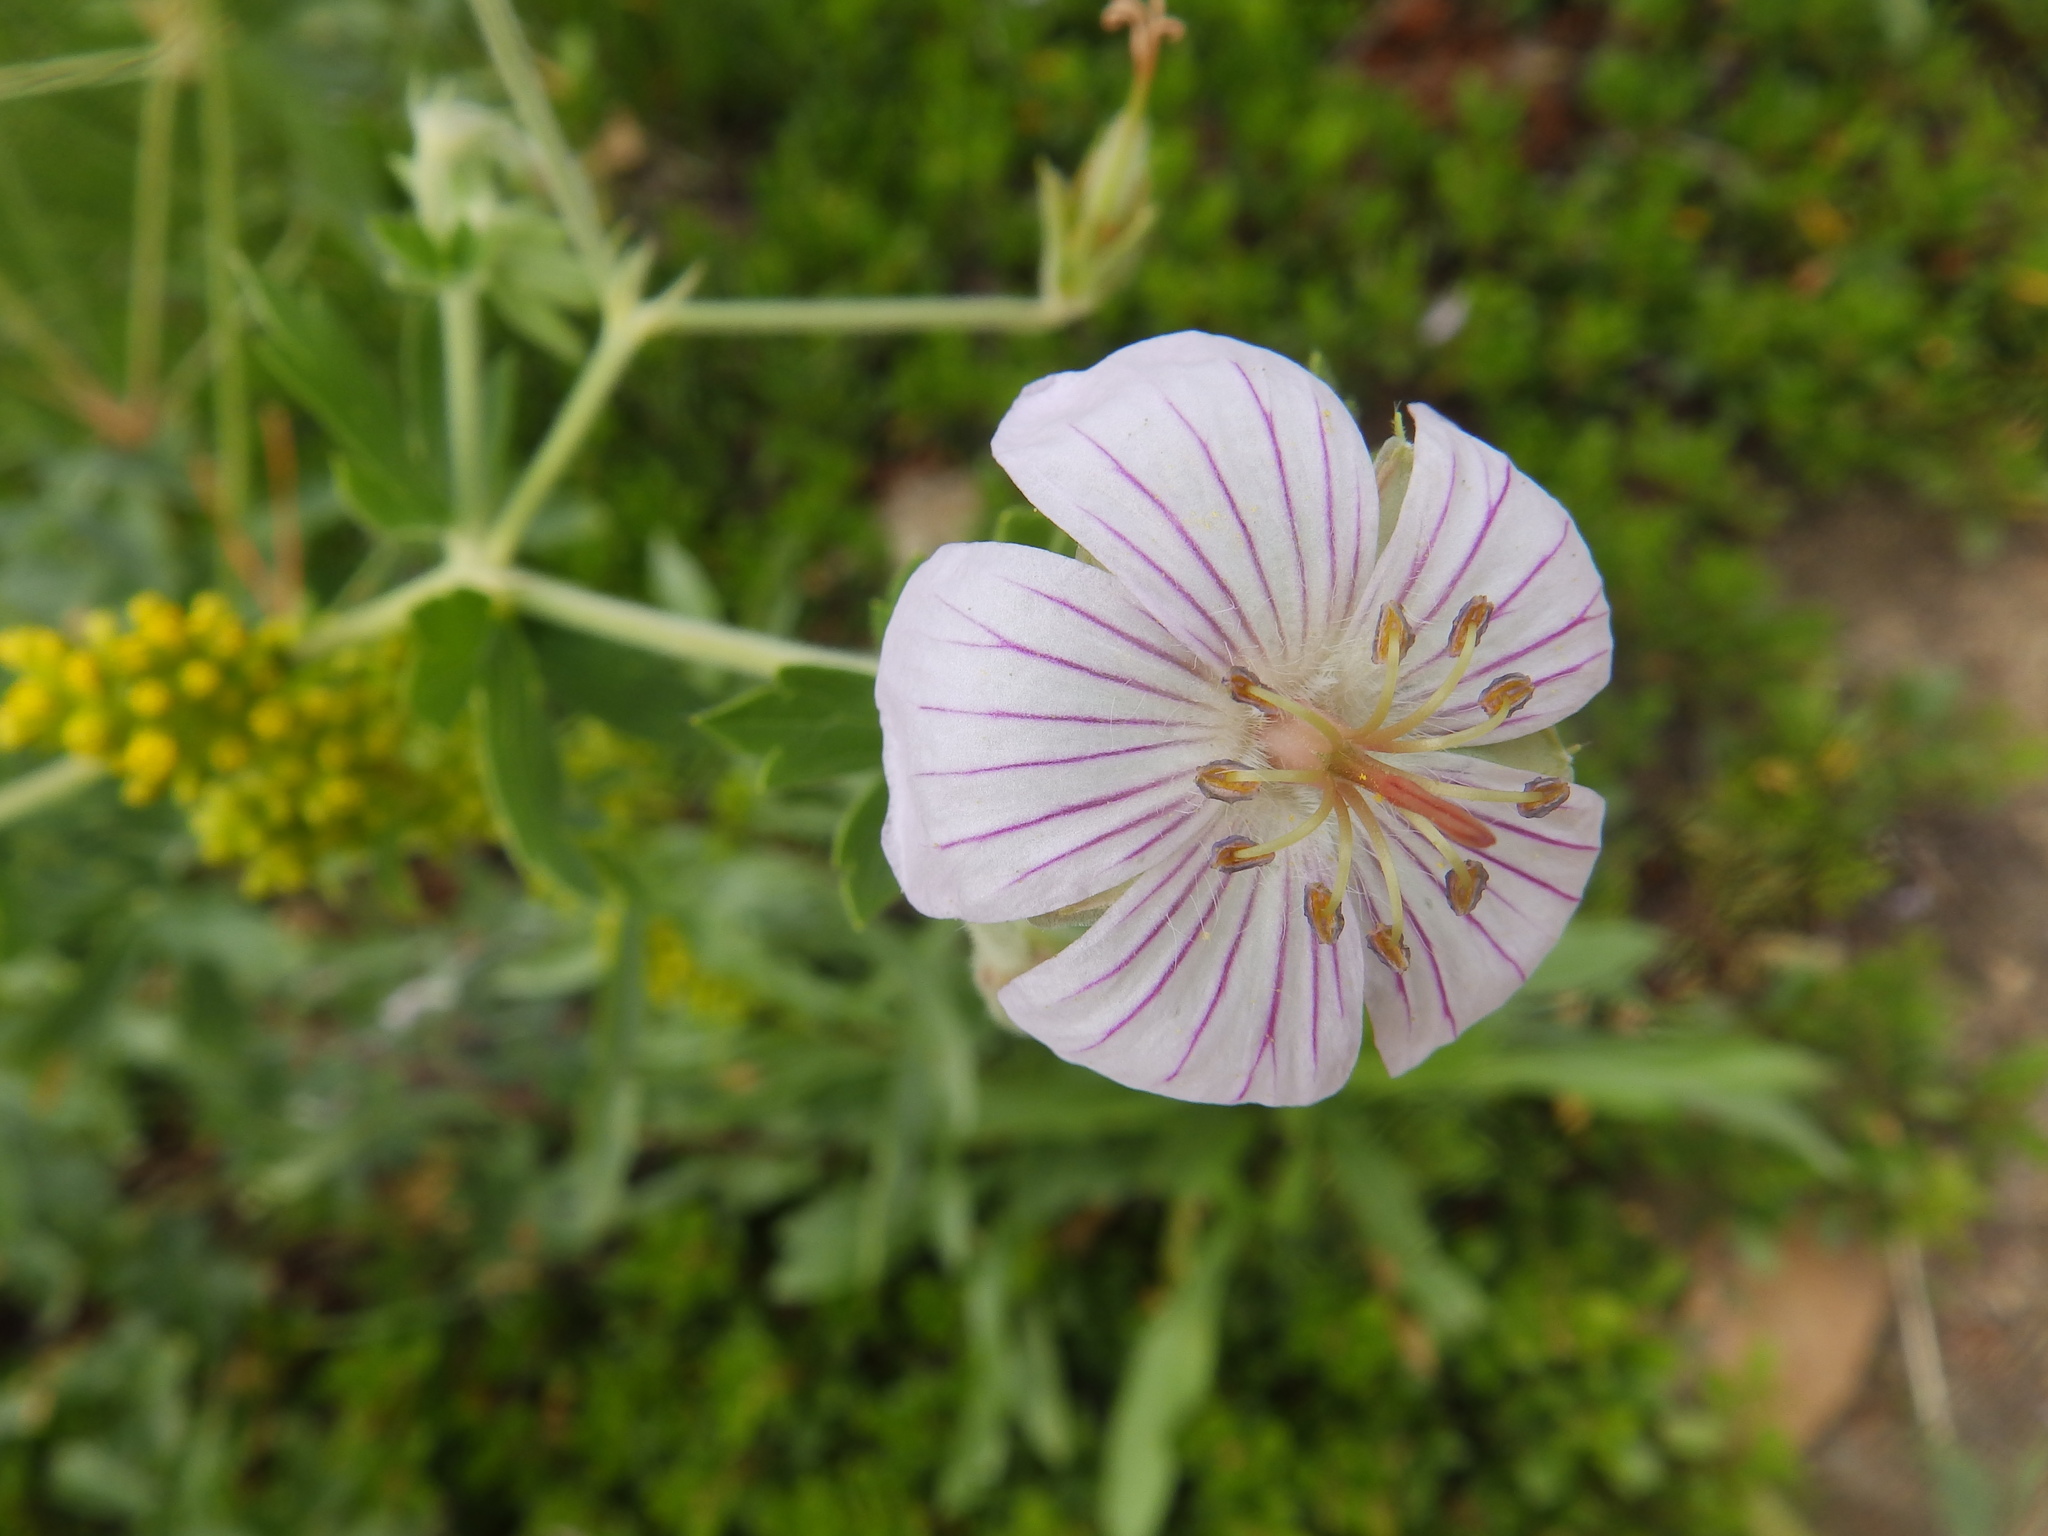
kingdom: Plantae
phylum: Tracheophyta
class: Magnoliopsida
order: Geraniales
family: Geraniaceae
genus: Geranium
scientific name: Geranium caespitosum
